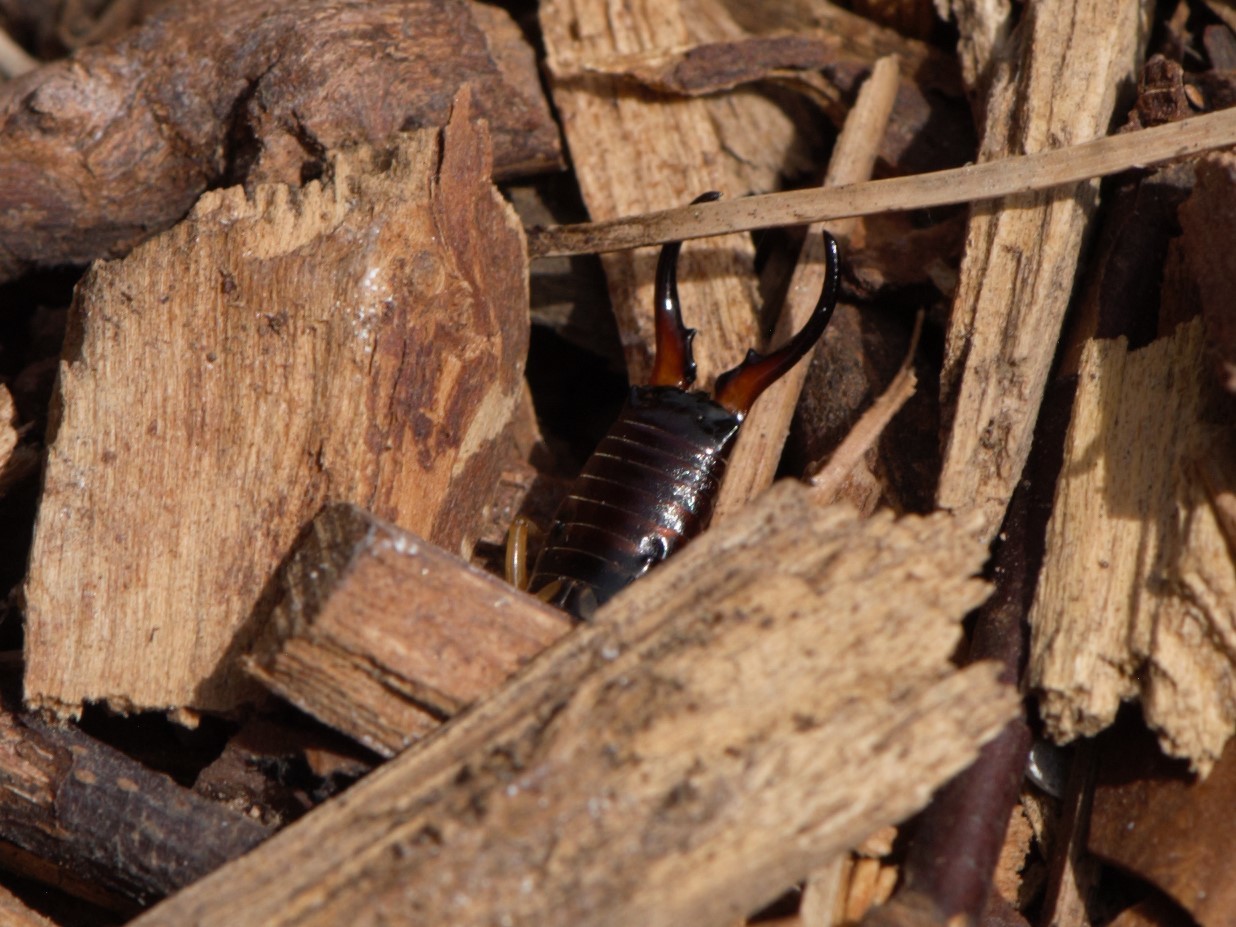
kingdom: Animalia
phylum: Arthropoda
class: Insecta
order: Dermaptera
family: Forficulidae
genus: Forficula
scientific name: Forficula
